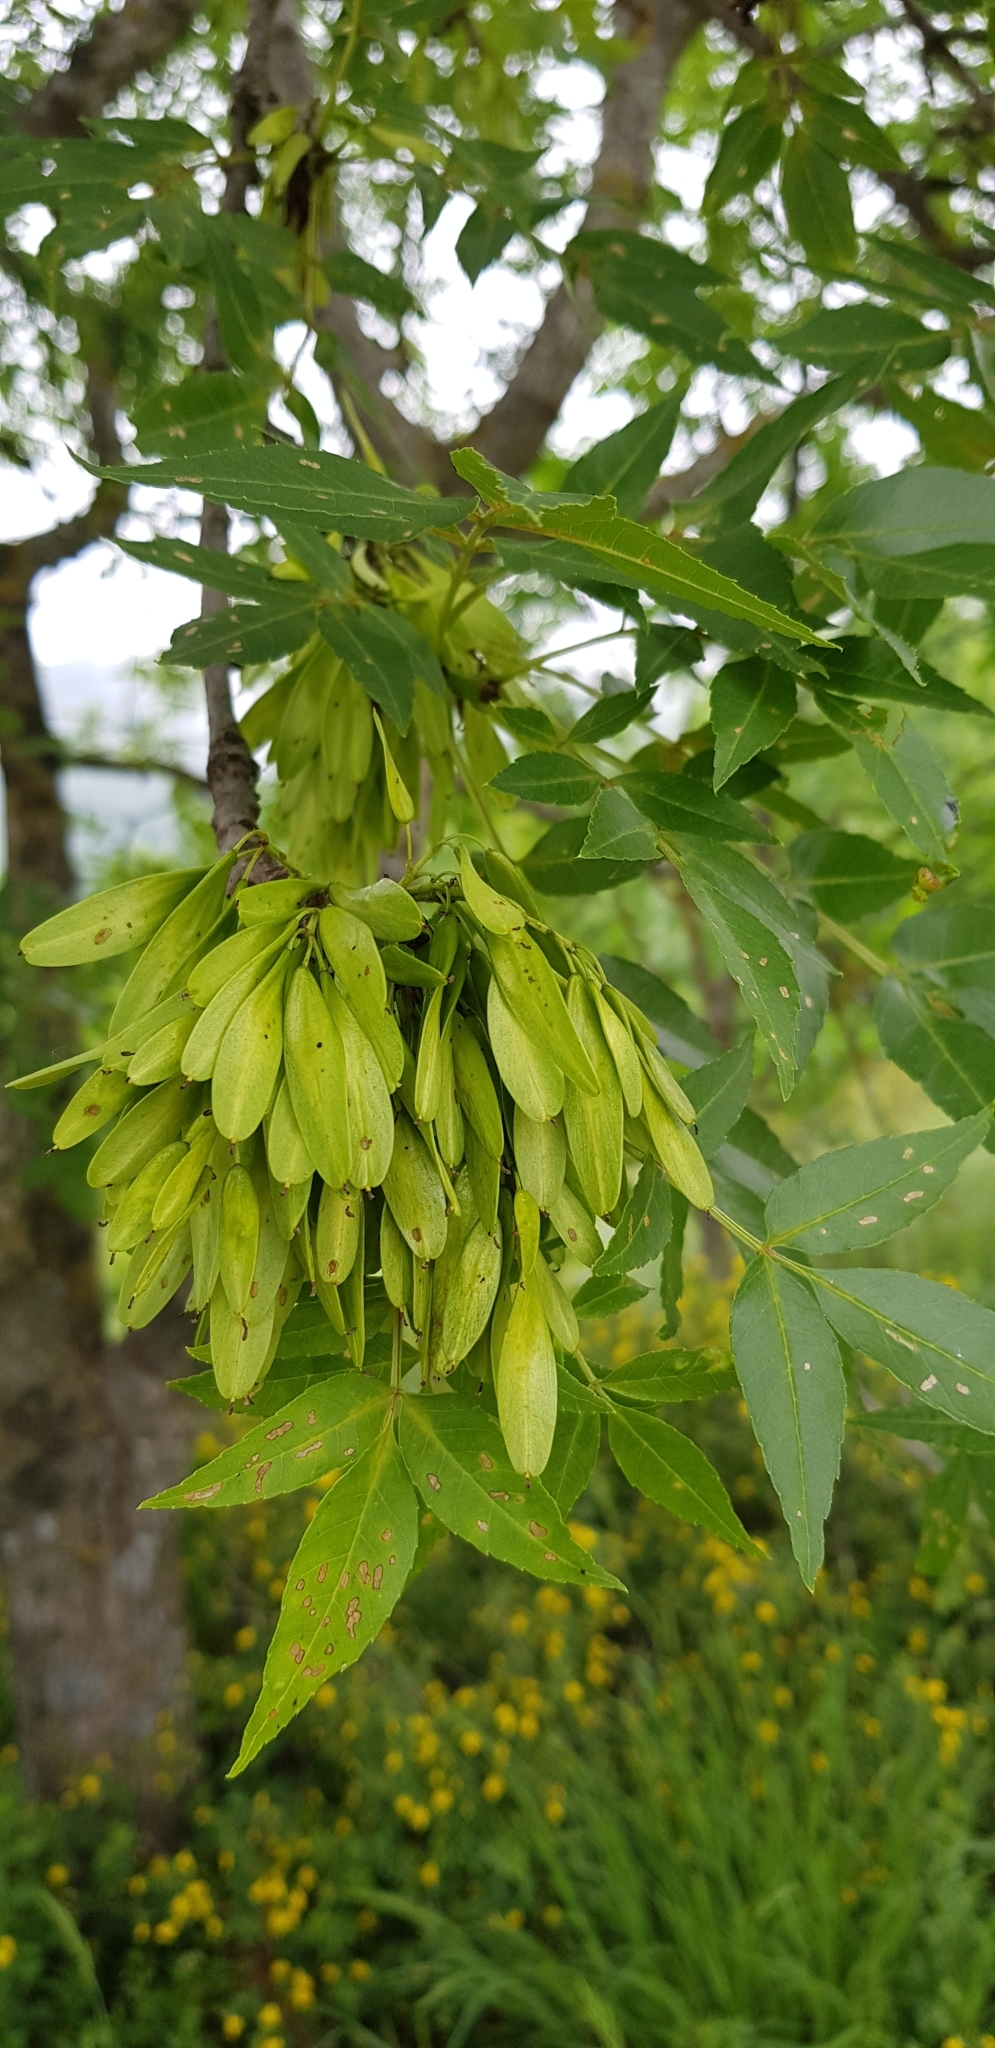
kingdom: Plantae
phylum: Tracheophyta
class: Magnoliopsida
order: Lamiales
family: Oleaceae
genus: Fraxinus
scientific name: Fraxinus angustifolia
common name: Narrow-leafed ash
